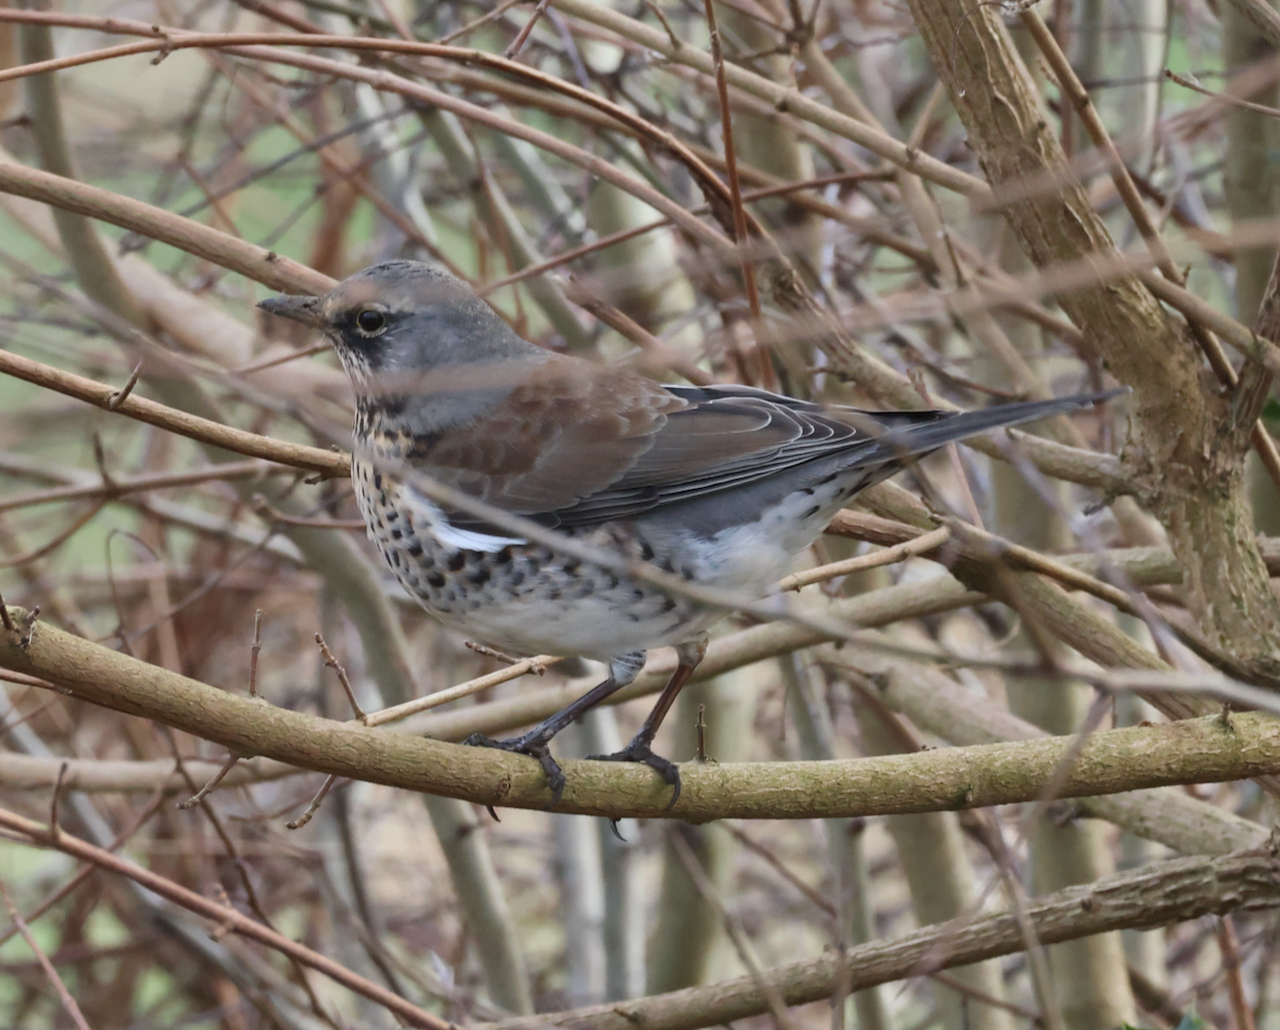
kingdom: Animalia
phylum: Chordata
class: Aves
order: Passeriformes
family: Turdidae
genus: Turdus
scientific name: Turdus pilaris
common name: Fieldfare
